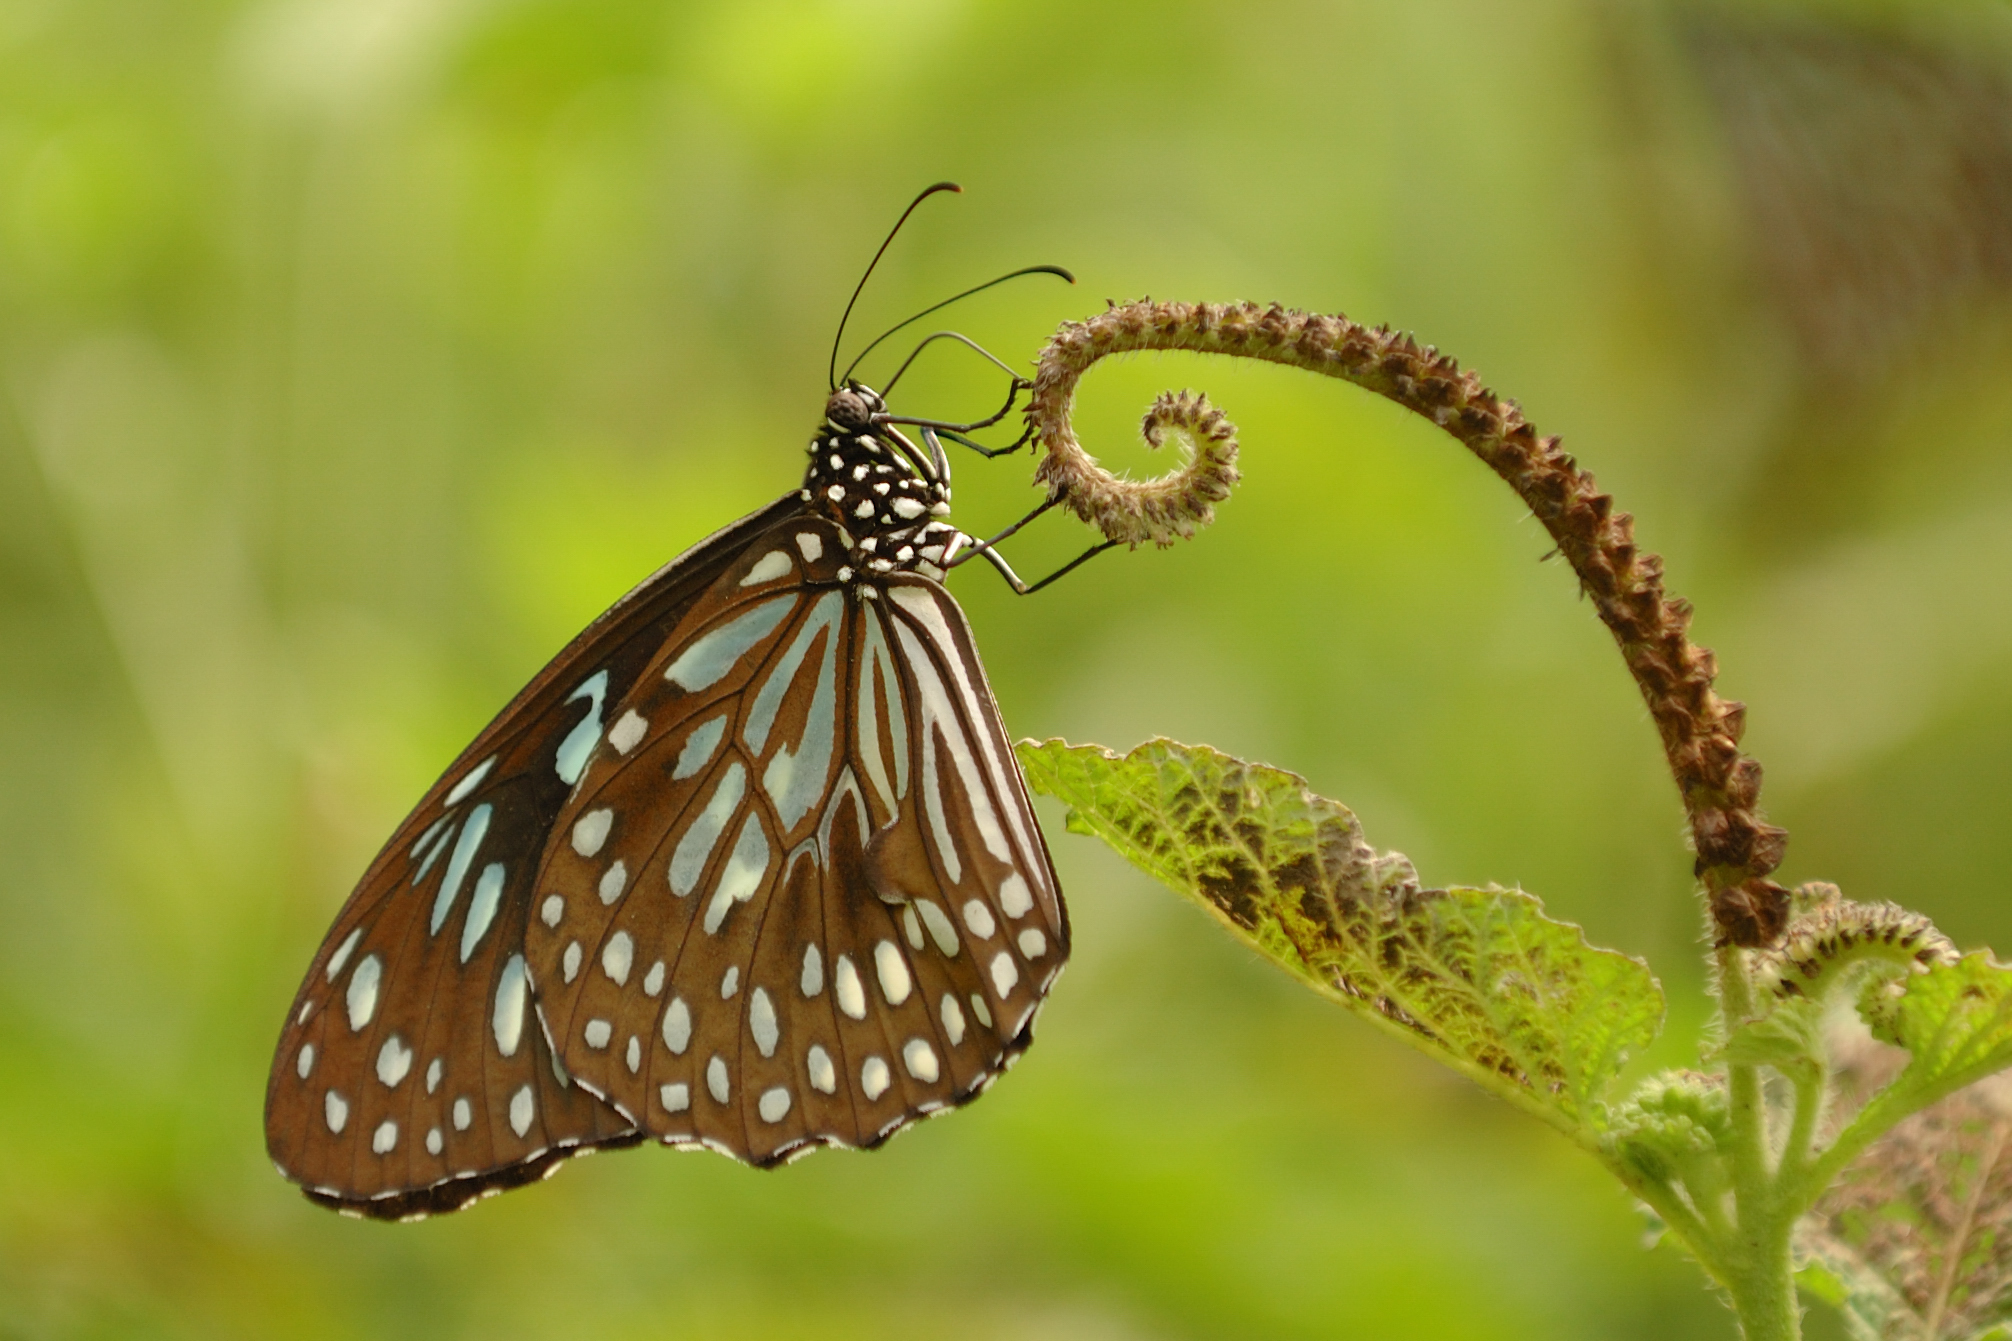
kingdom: Animalia
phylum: Arthropoda
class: Insecta
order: Lepidoptera
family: Nymphalidae
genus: Tirumala
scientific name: Tirumala septentrionis
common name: Dark blue tiger butterfly
